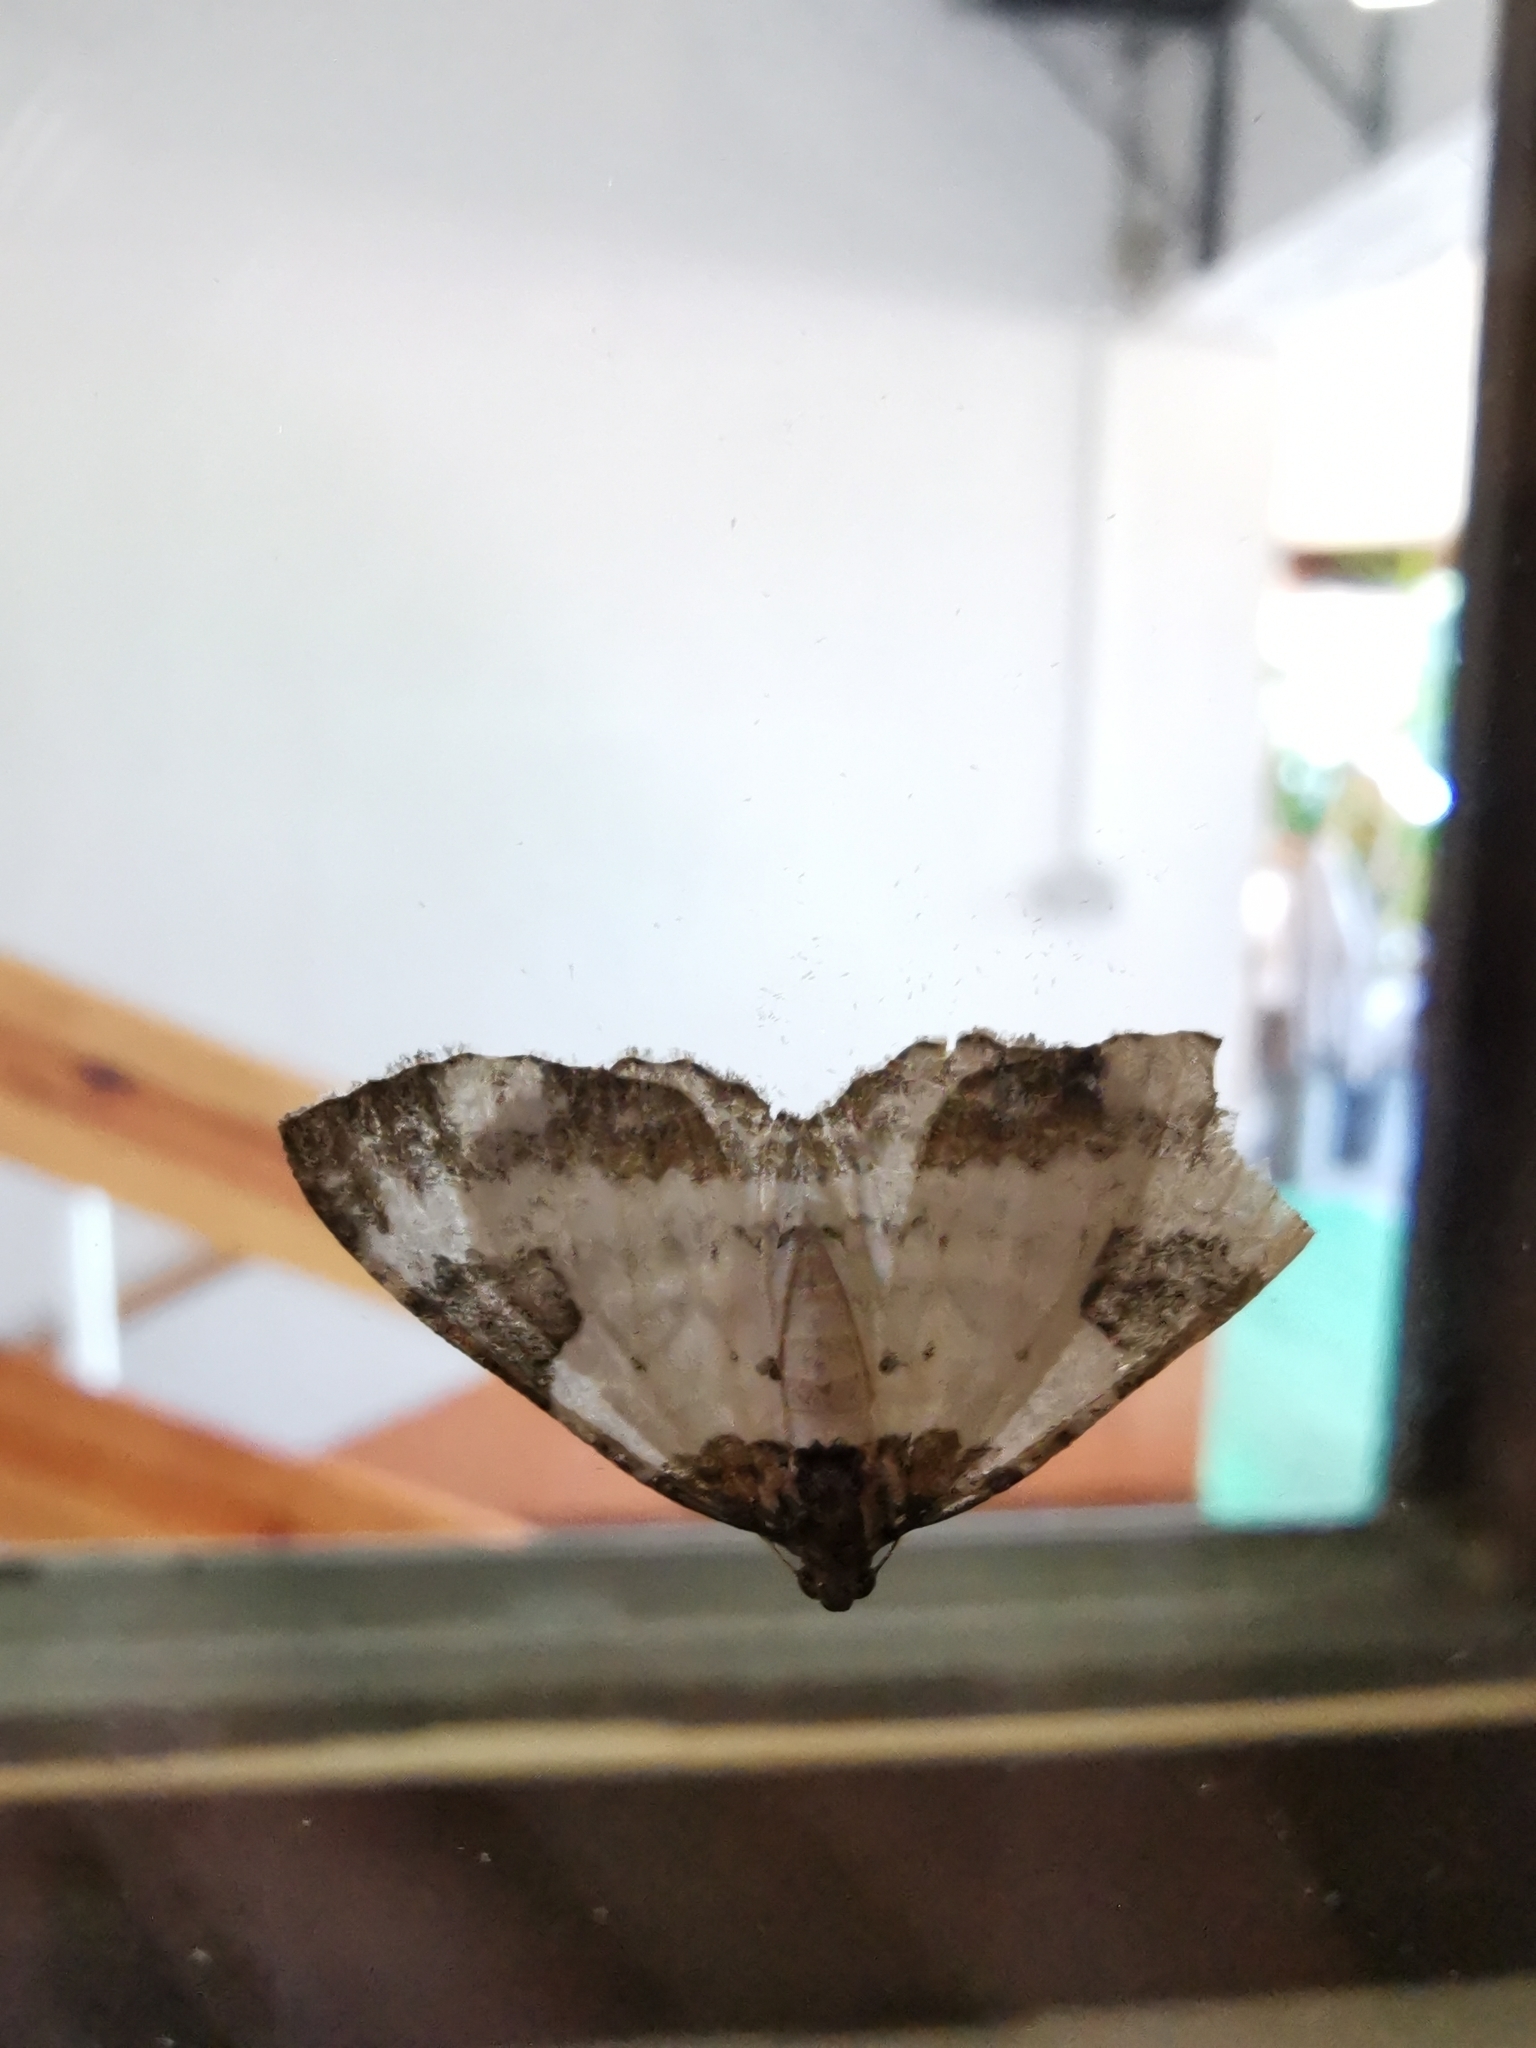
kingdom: Animalia
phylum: Arthropoda
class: Insecta
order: Lepidoptera
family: Geometridae
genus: Melanthia
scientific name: Melanthia procellata
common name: Pretty chalk carpet
